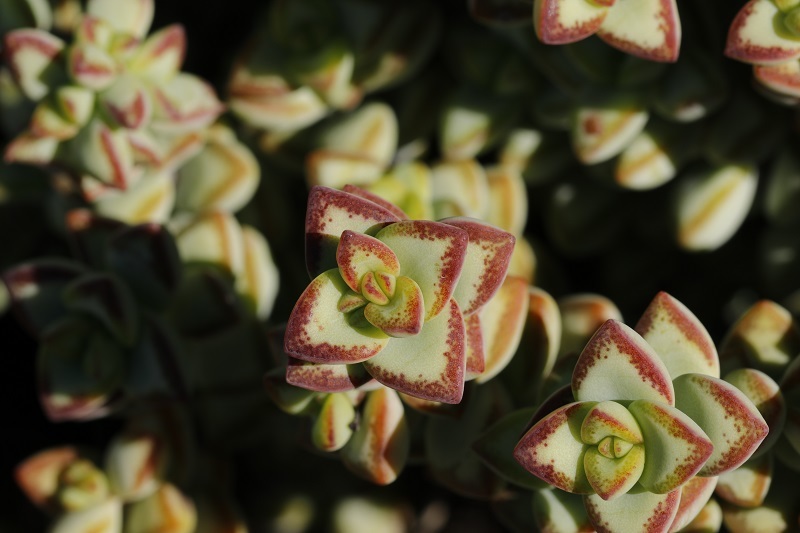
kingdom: Plantae
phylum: Tracheophyta
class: Magnoliopsida
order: Saxifragales
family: Crassulaceae
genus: Crassula
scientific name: Crassula rupestris
